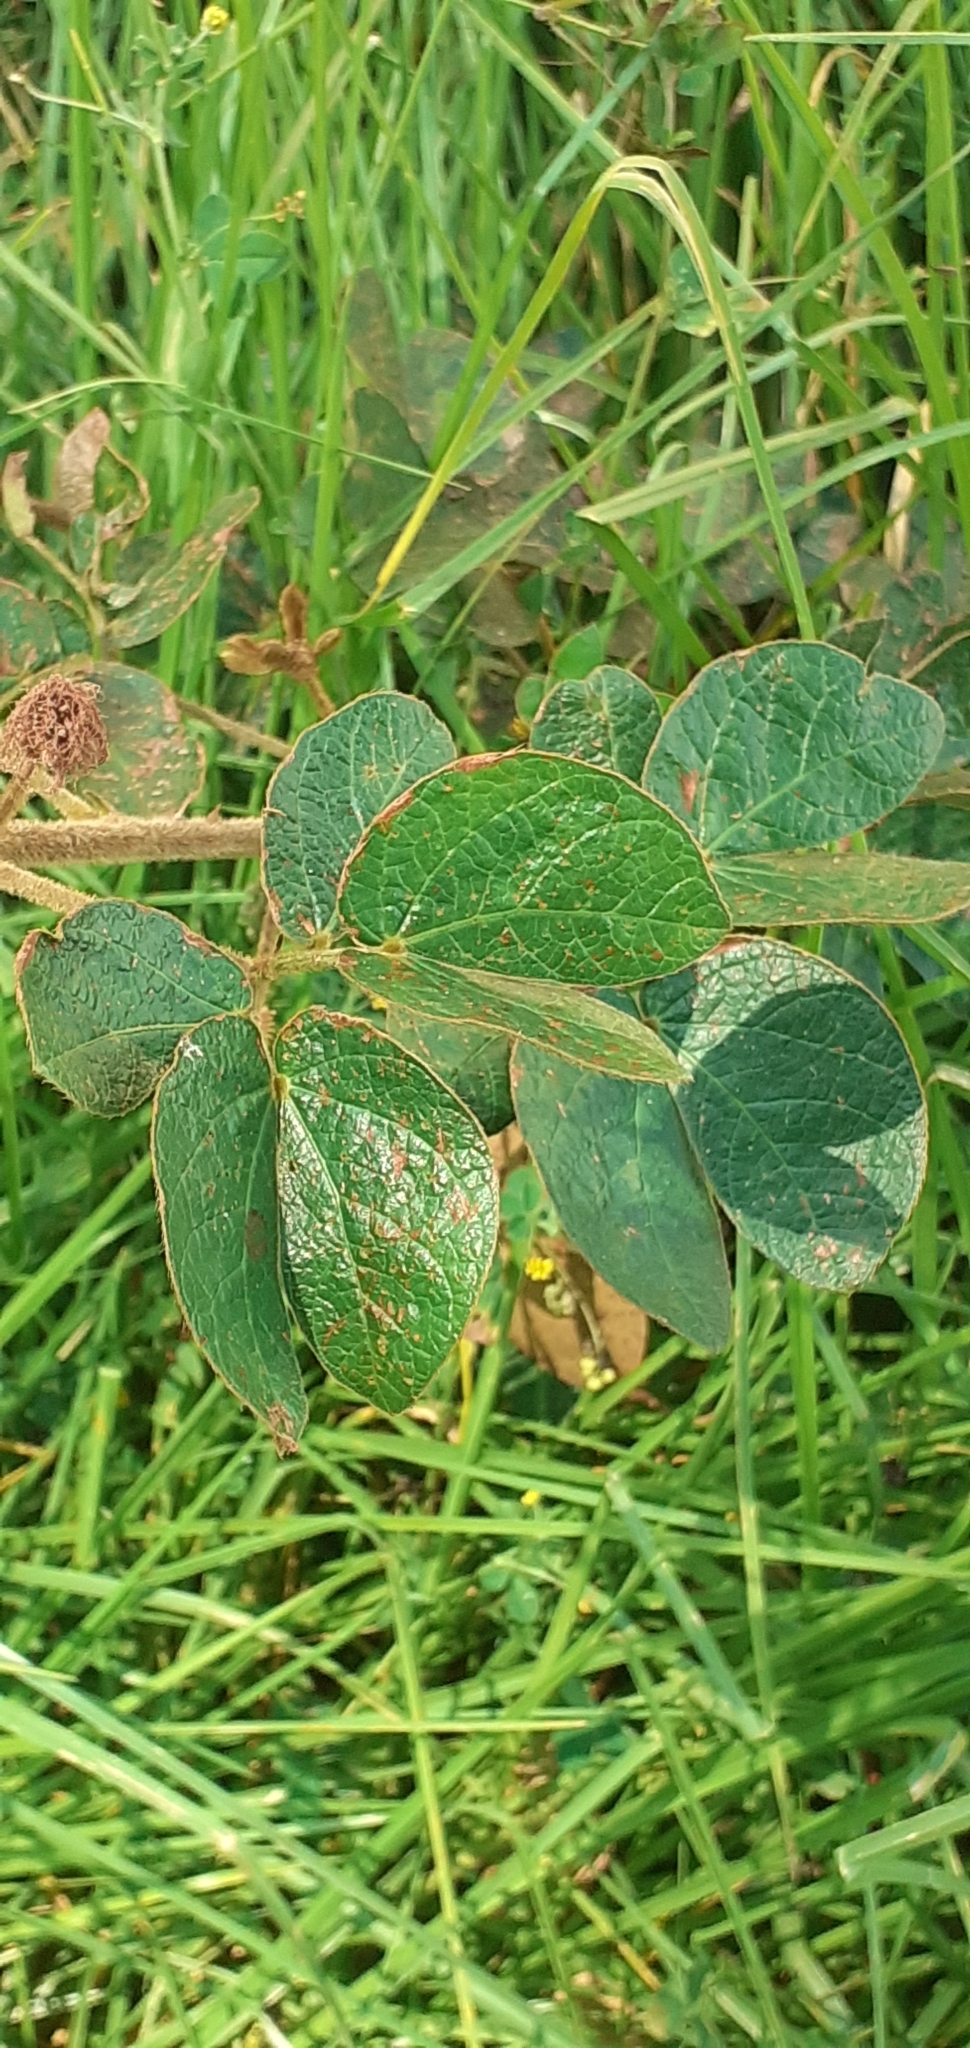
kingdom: Plantae
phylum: Tracheophyta
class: Magnoliopsida
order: Fabales
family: Fabaceae
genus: Mimosa
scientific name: Mimosa albida
